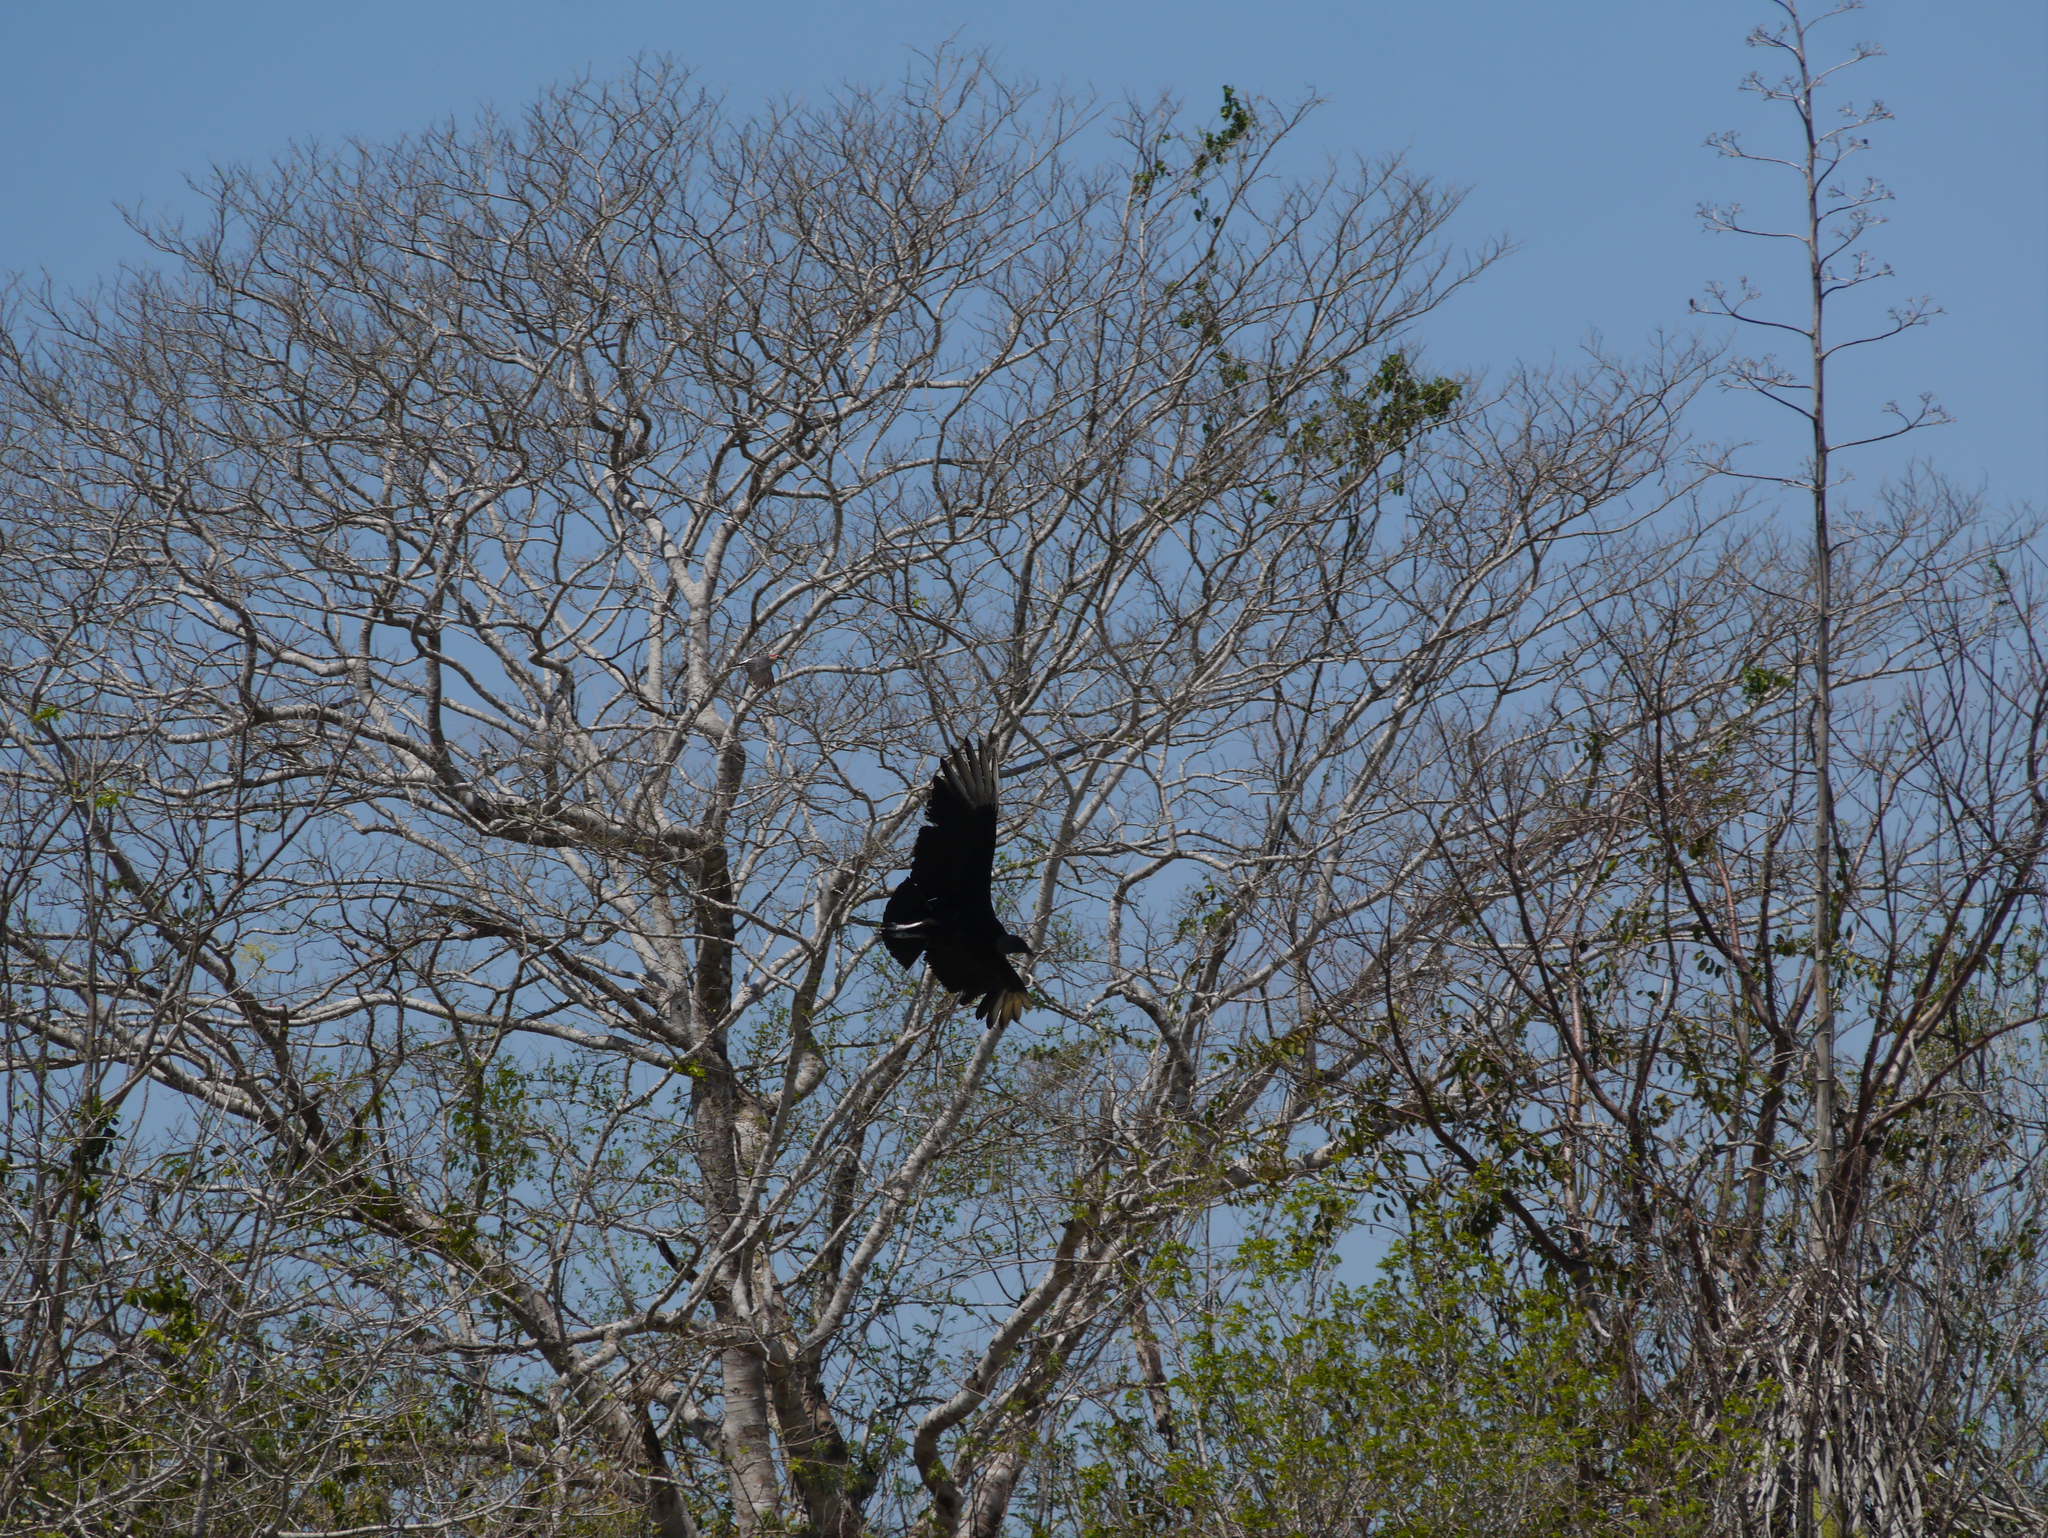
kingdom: Animalia
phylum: Chordata
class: Aves
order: Accipitriformes
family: Cathartidae
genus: Coragyps
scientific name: Coragyps atratus
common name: Black vulture
